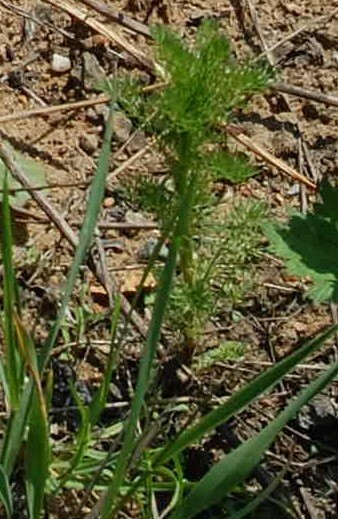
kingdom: Plantae
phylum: Tracheophyta
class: Magnoliopsida
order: Asterales
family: Asteraceae
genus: Tripleurospermum
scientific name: Tripleurospermum inodorum
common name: Scentless mayweed
